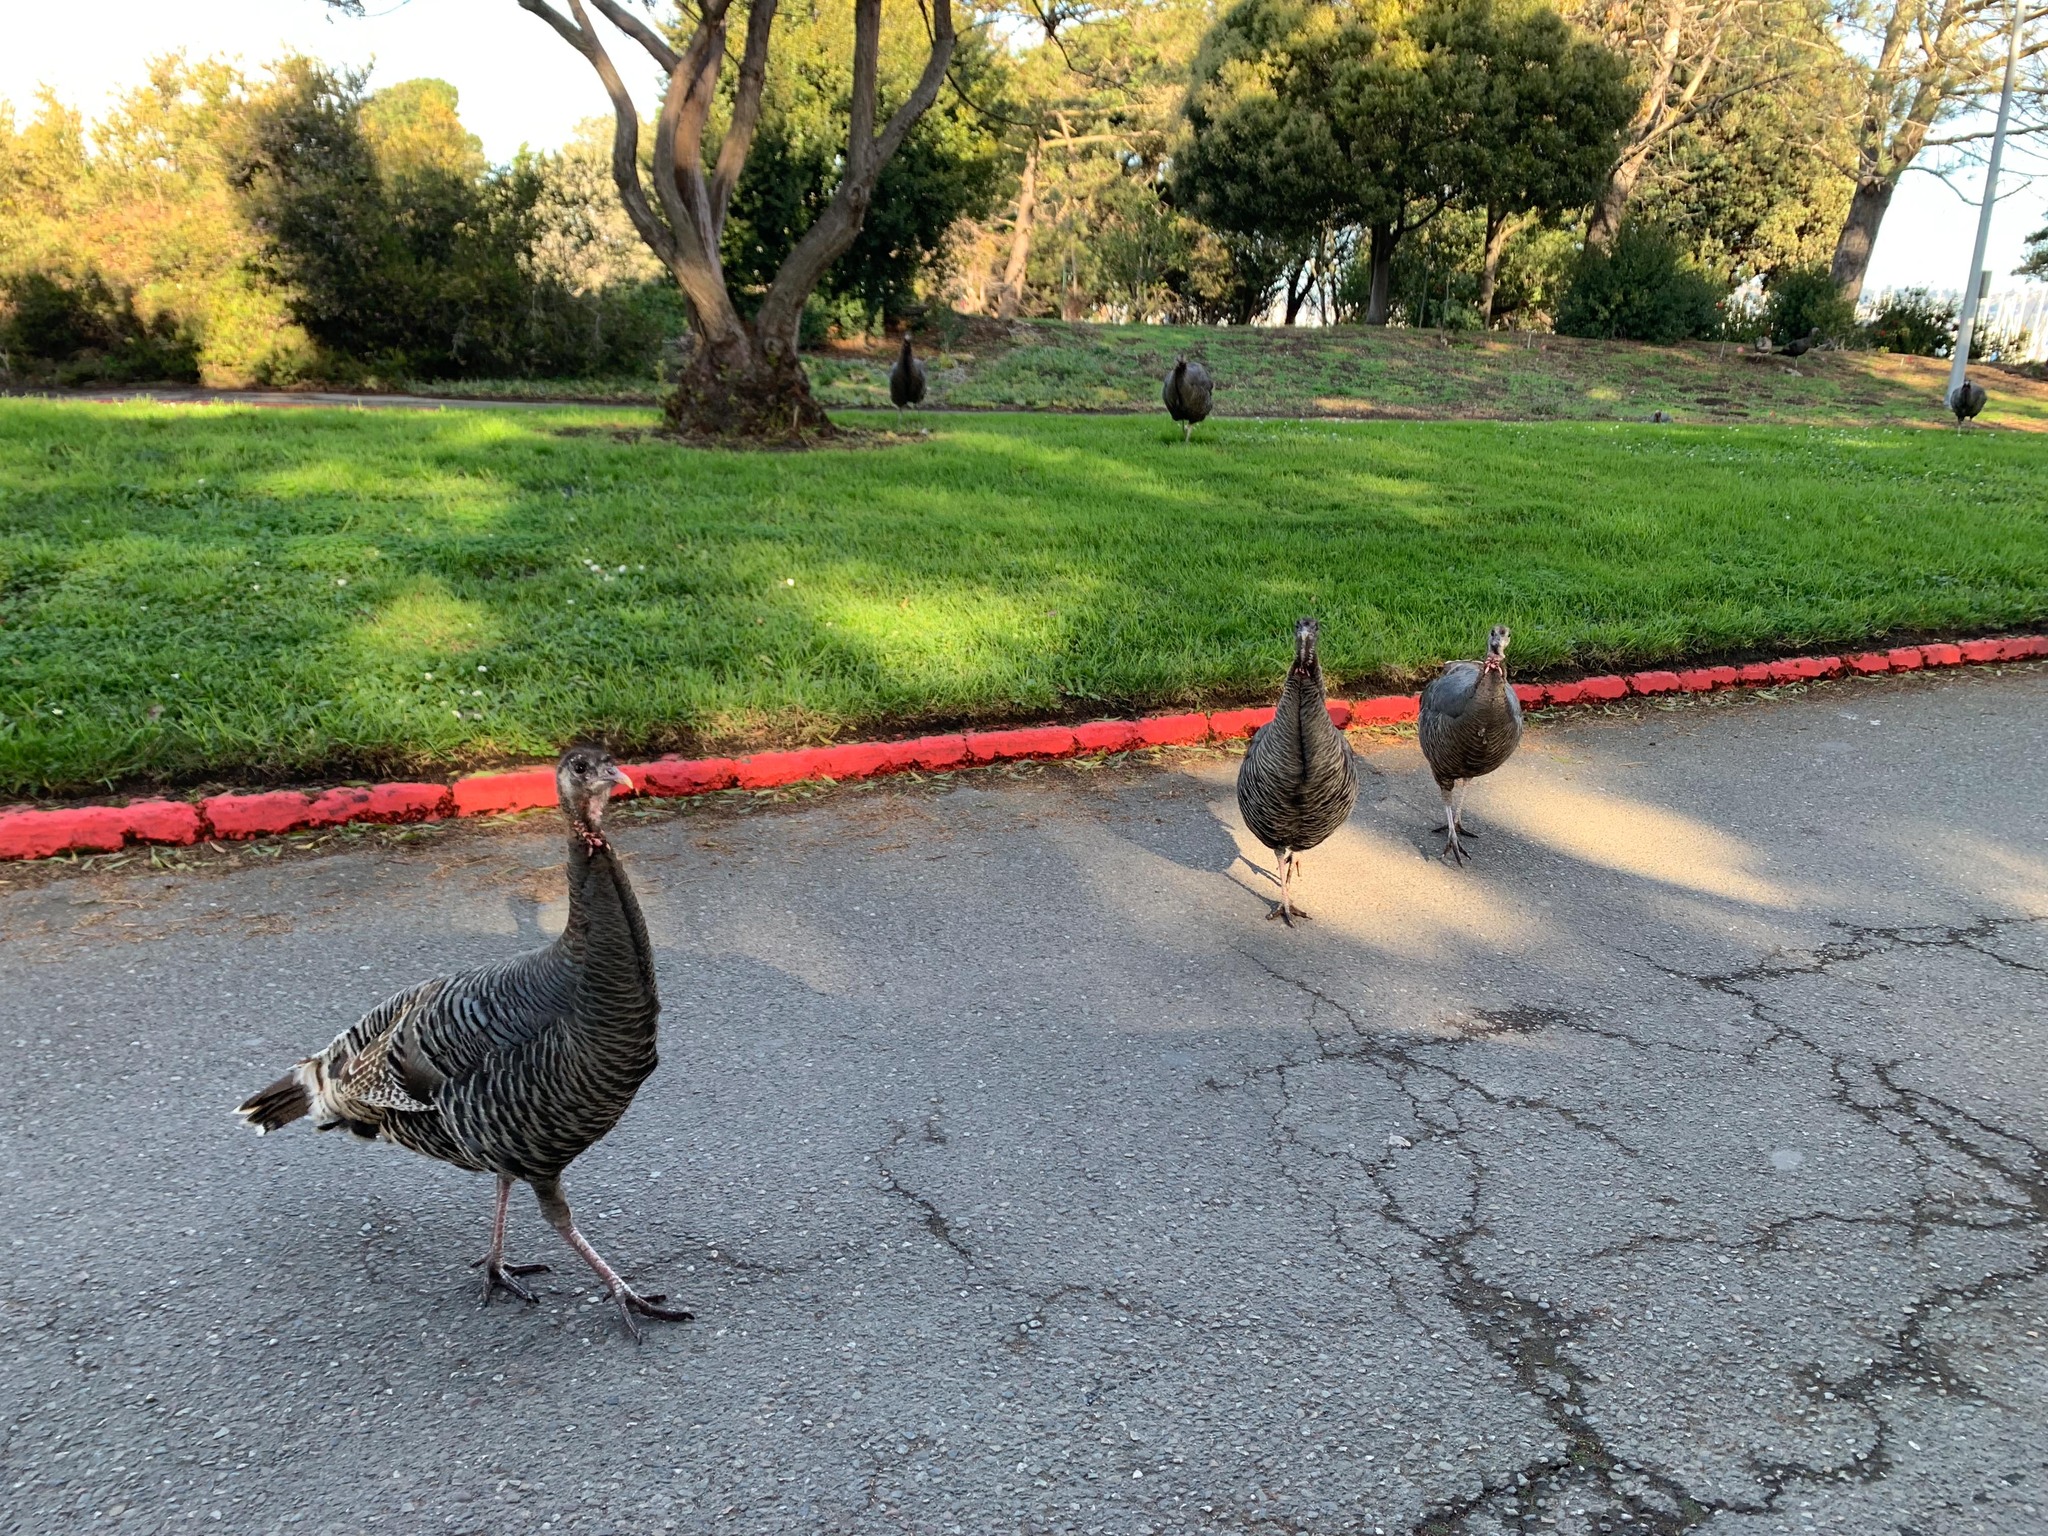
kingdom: Animalia
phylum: Chordata
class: Aves
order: Galliformes
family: Phasianidae
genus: Meleagris
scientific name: Meleagris gallopavo
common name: Wild turkey
